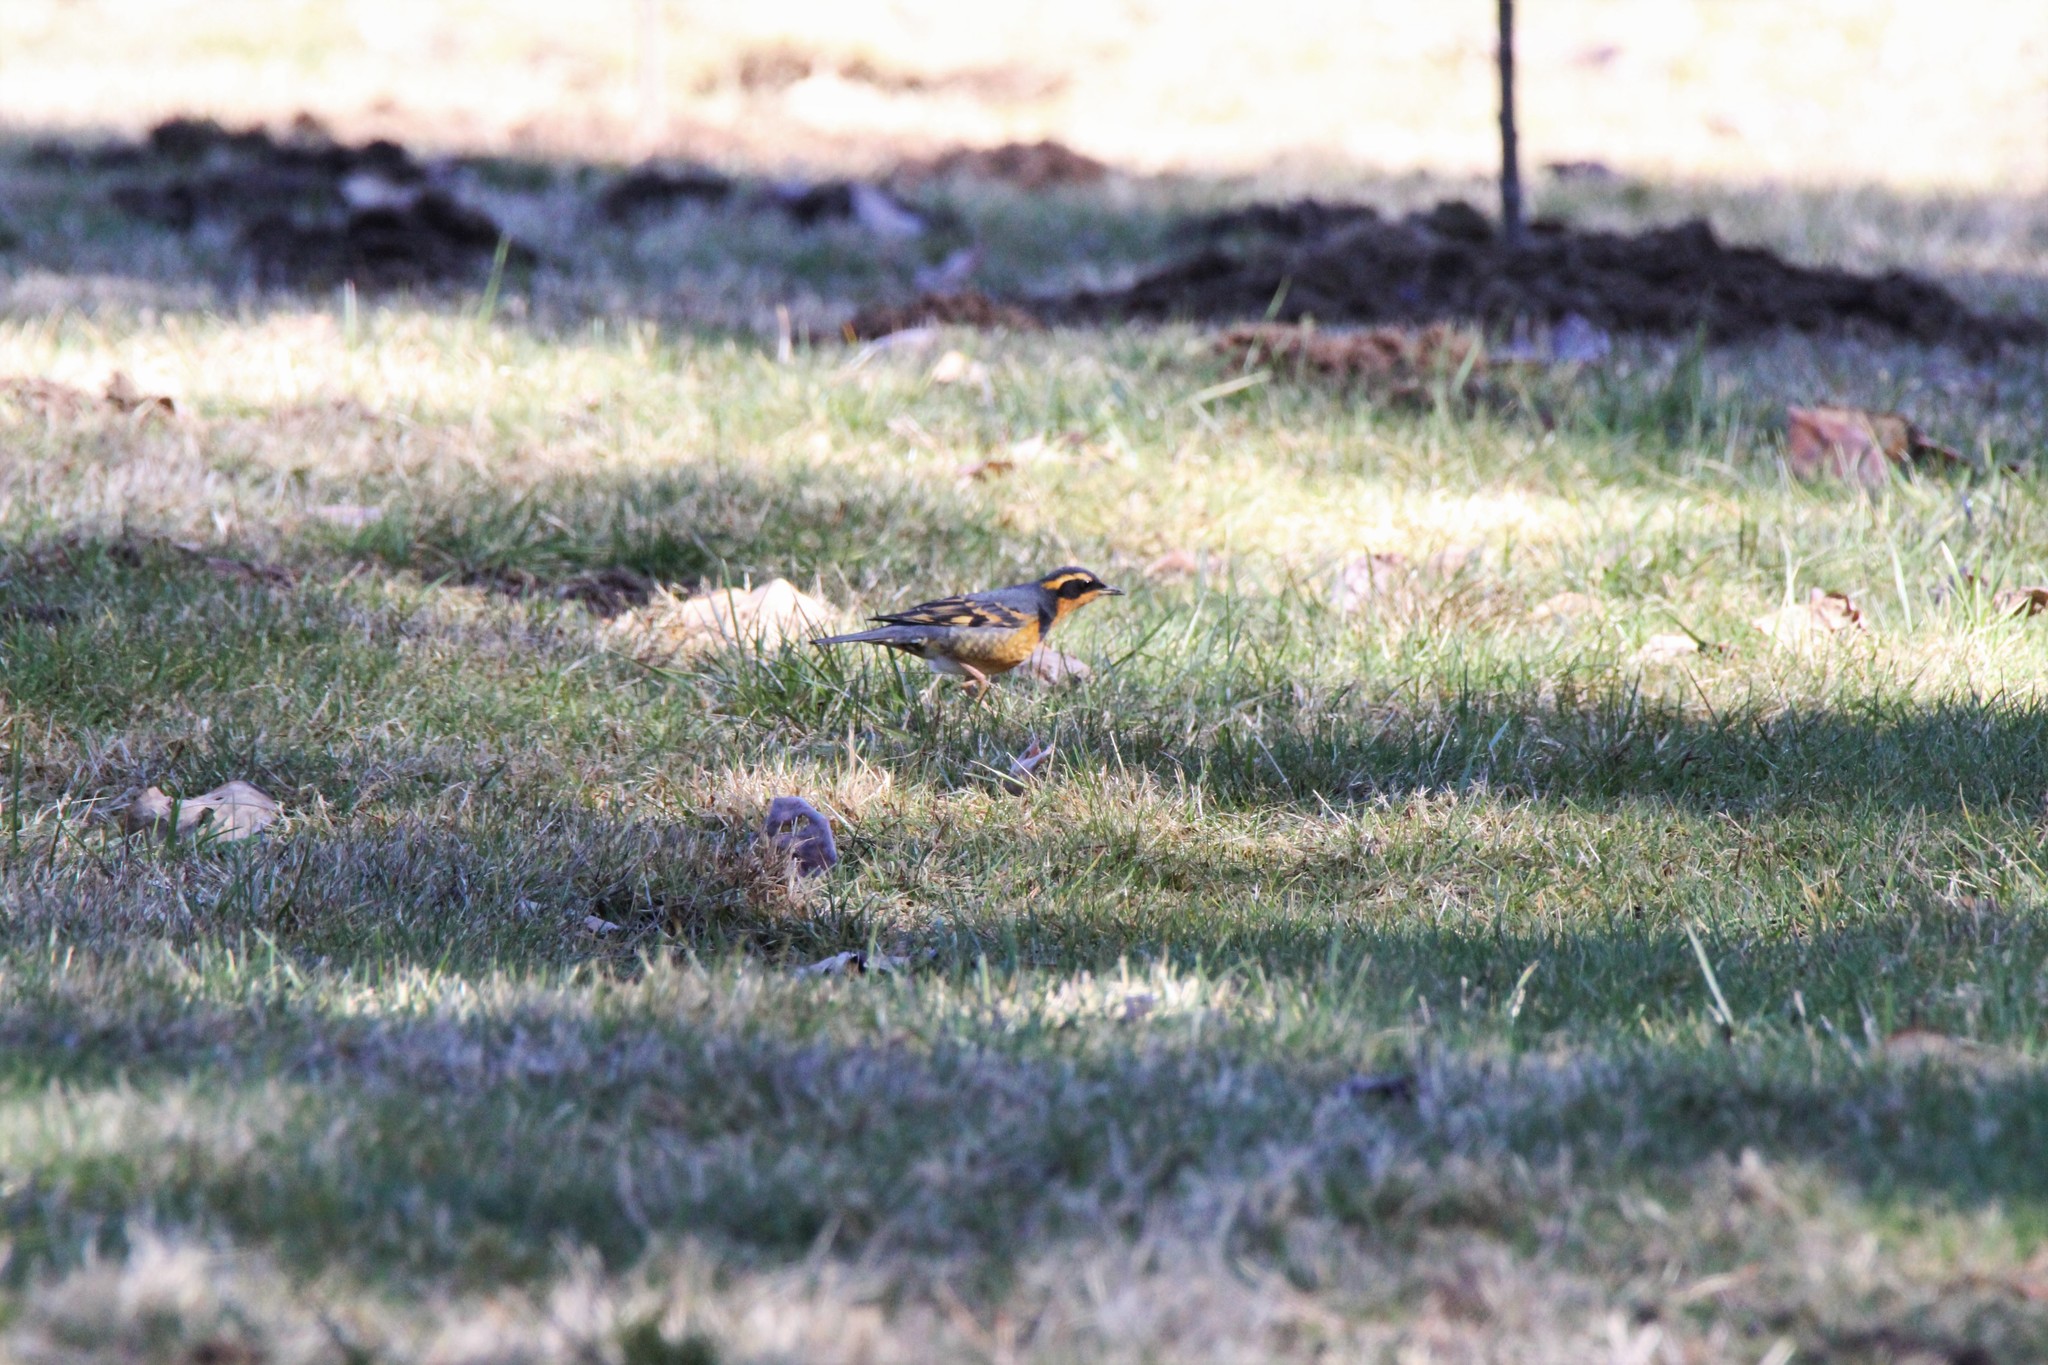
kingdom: Animalia
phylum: Chordata
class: Aves
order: Passeriformes
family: Turdidae
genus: Ixoreus
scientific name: Ixoreus naevius
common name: Varied thrush
